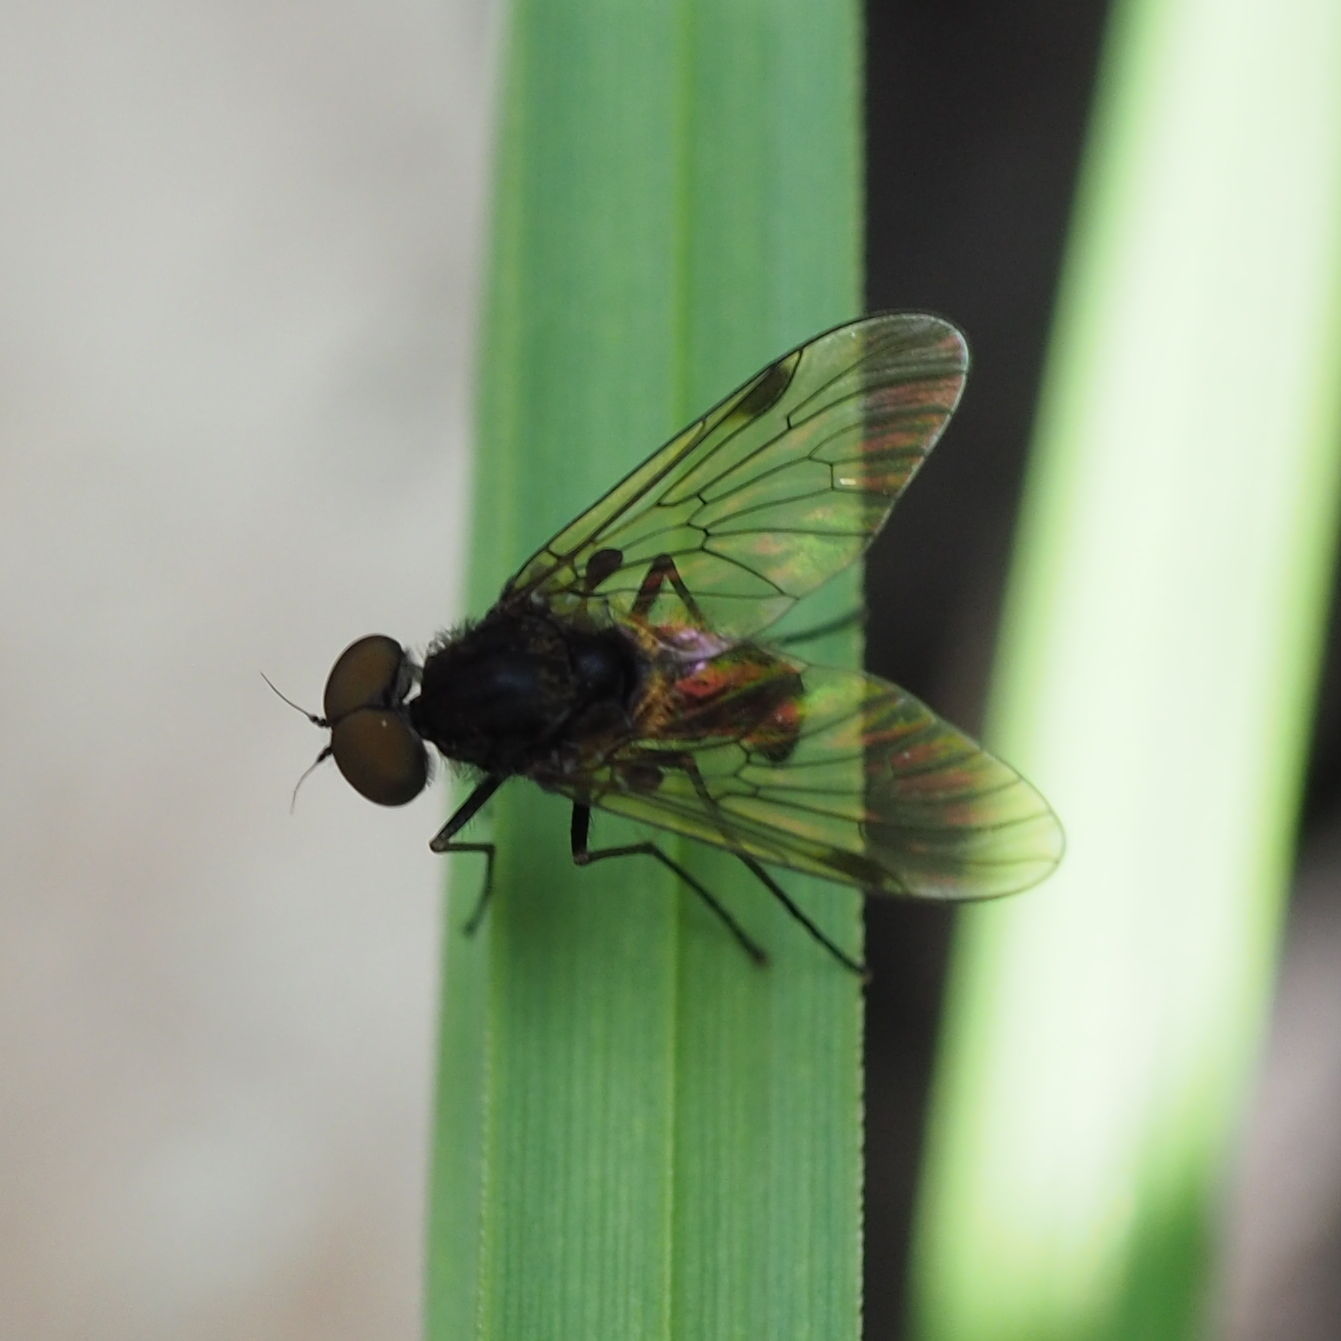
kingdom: Animalia
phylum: Arthropoda
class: Insecta
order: Diptera
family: Rhagionidae
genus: Chrysopilus
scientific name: Chrysopilus cristatus
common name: Black snipefly
